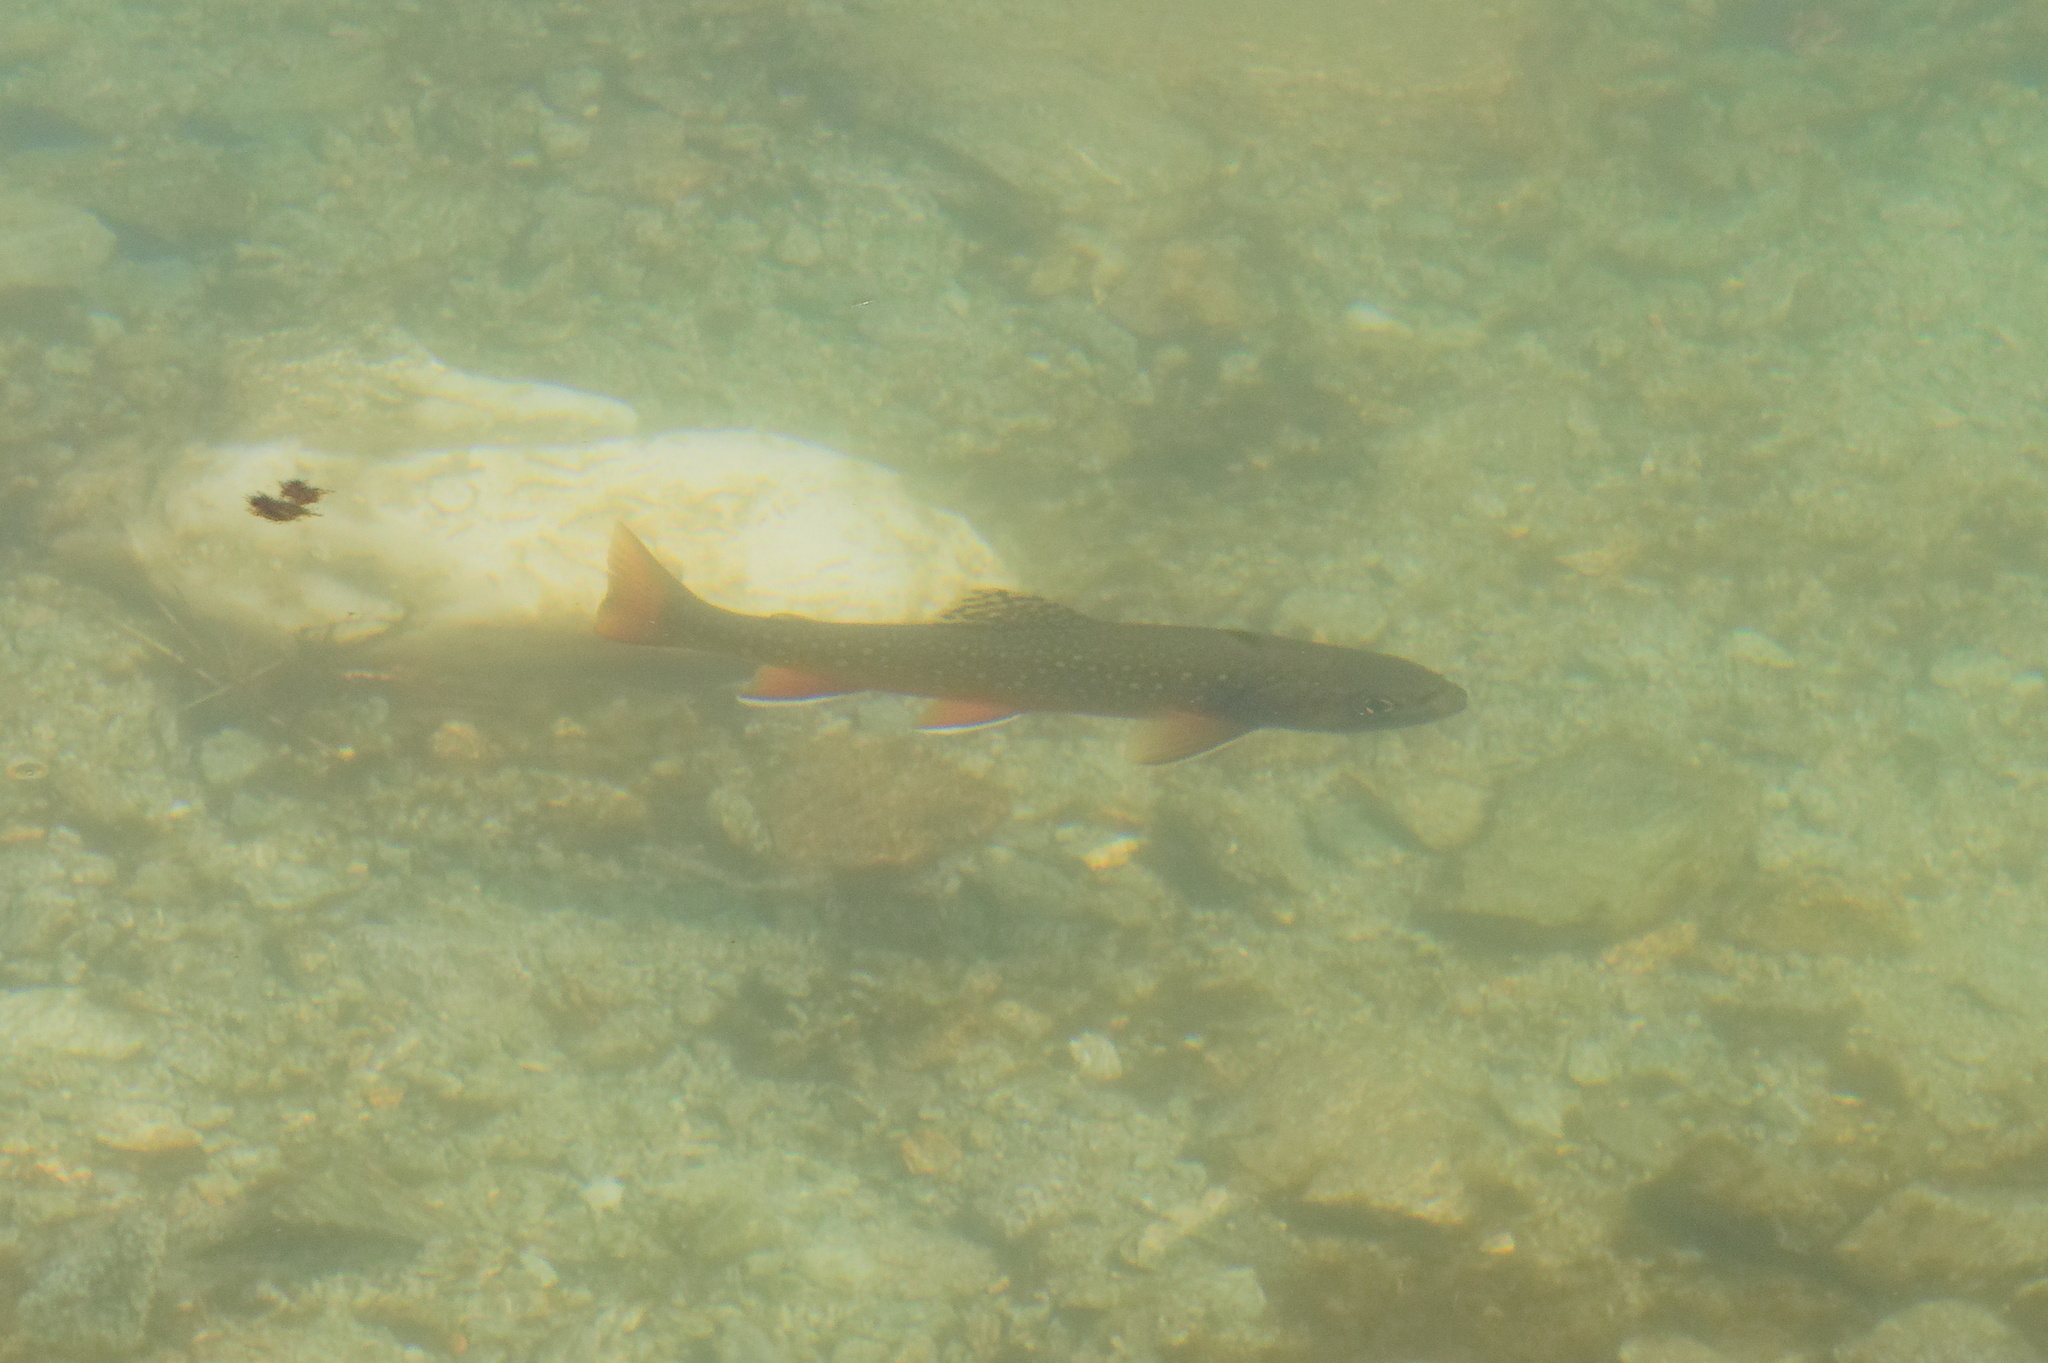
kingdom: Animalia
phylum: Chordata
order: Salmoniformes
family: Salmonidae
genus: Salvelinus
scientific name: Salvelinus fontinalis
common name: Brook trout
